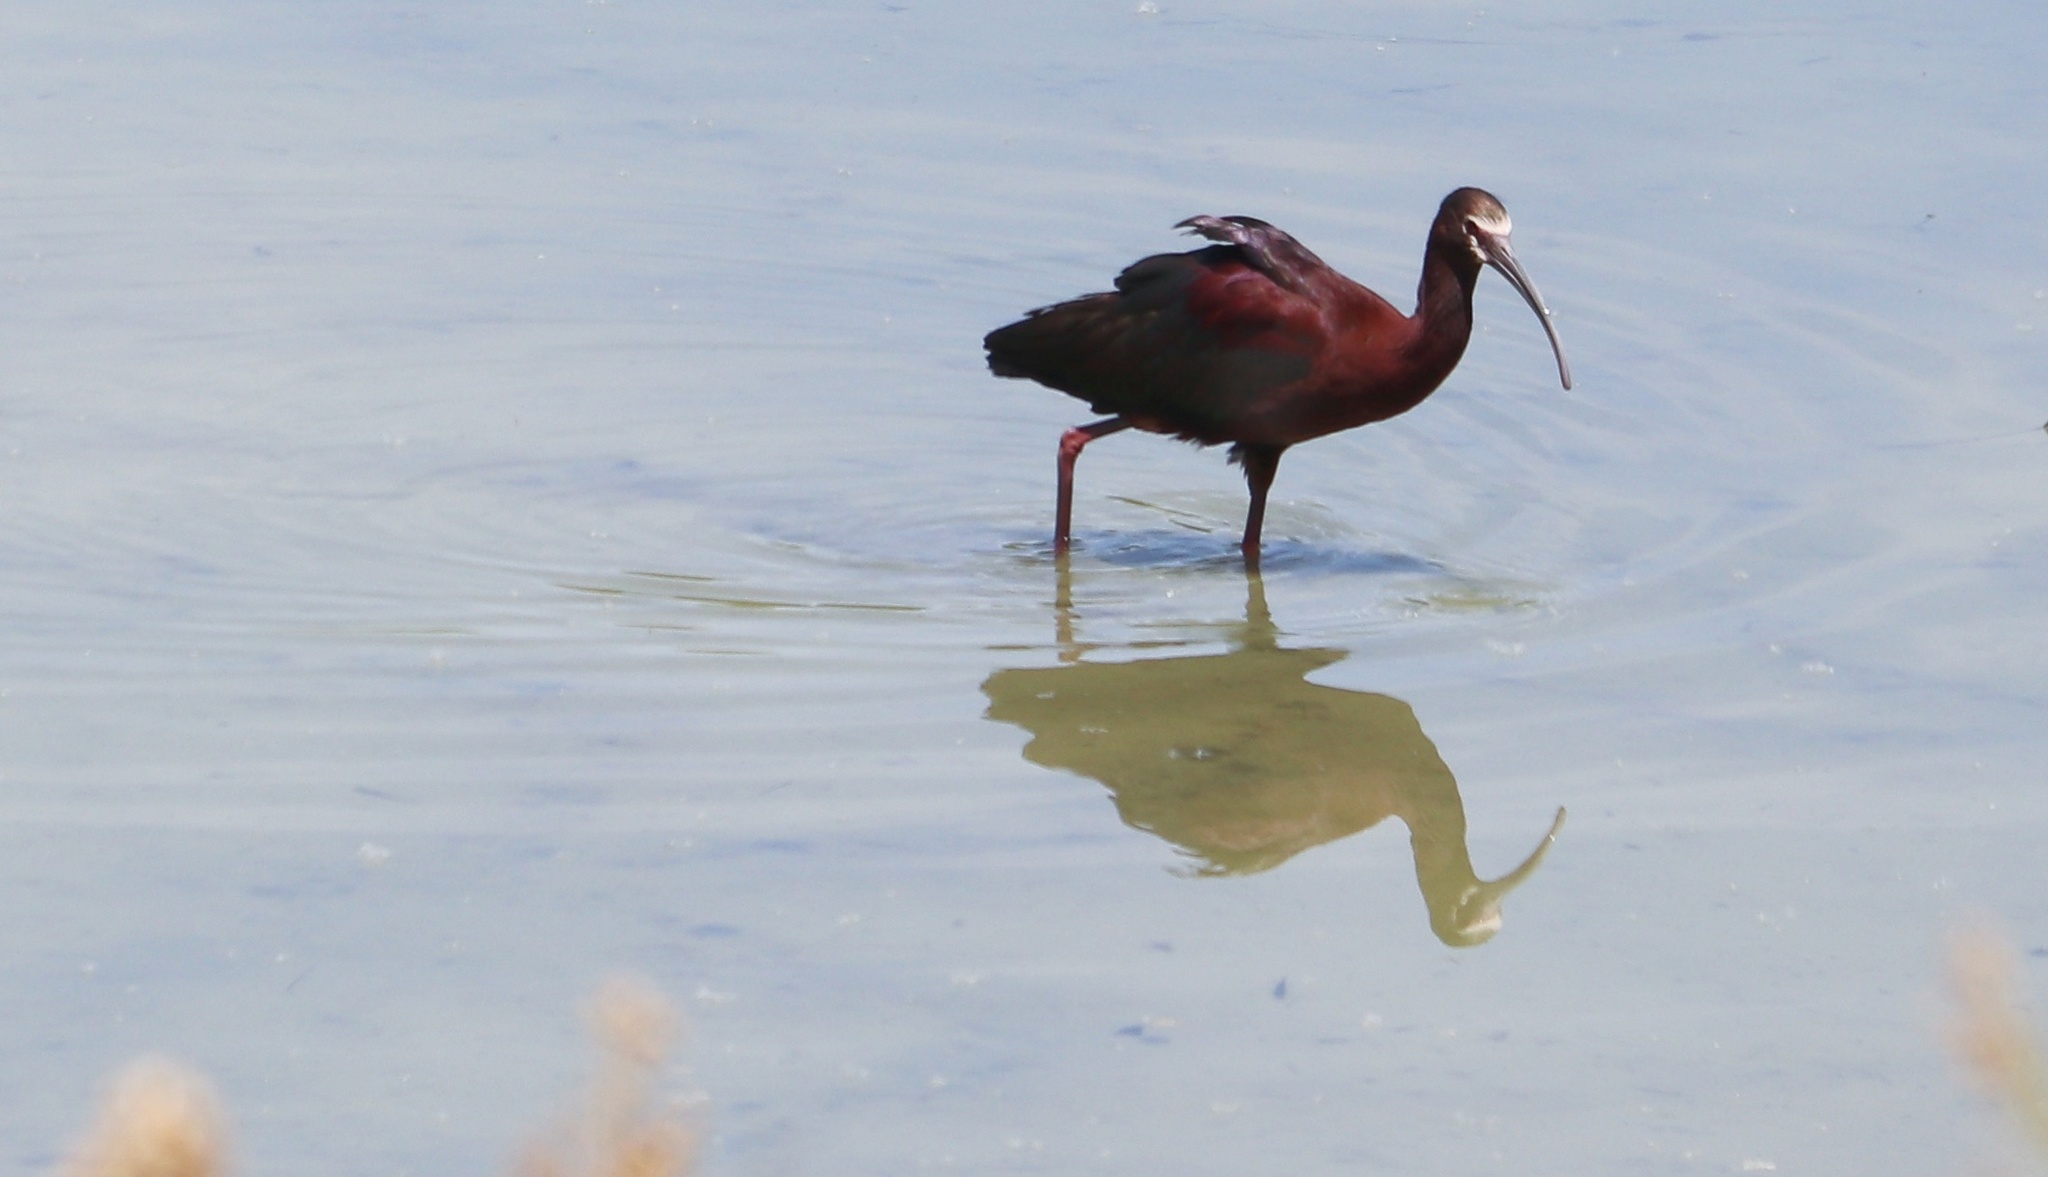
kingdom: Animalia
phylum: Chordata
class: Aves
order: Pelecaniformes
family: Threskiornithidae
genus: Plegadis
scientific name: Plegadis chihi
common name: White-faced ibis
